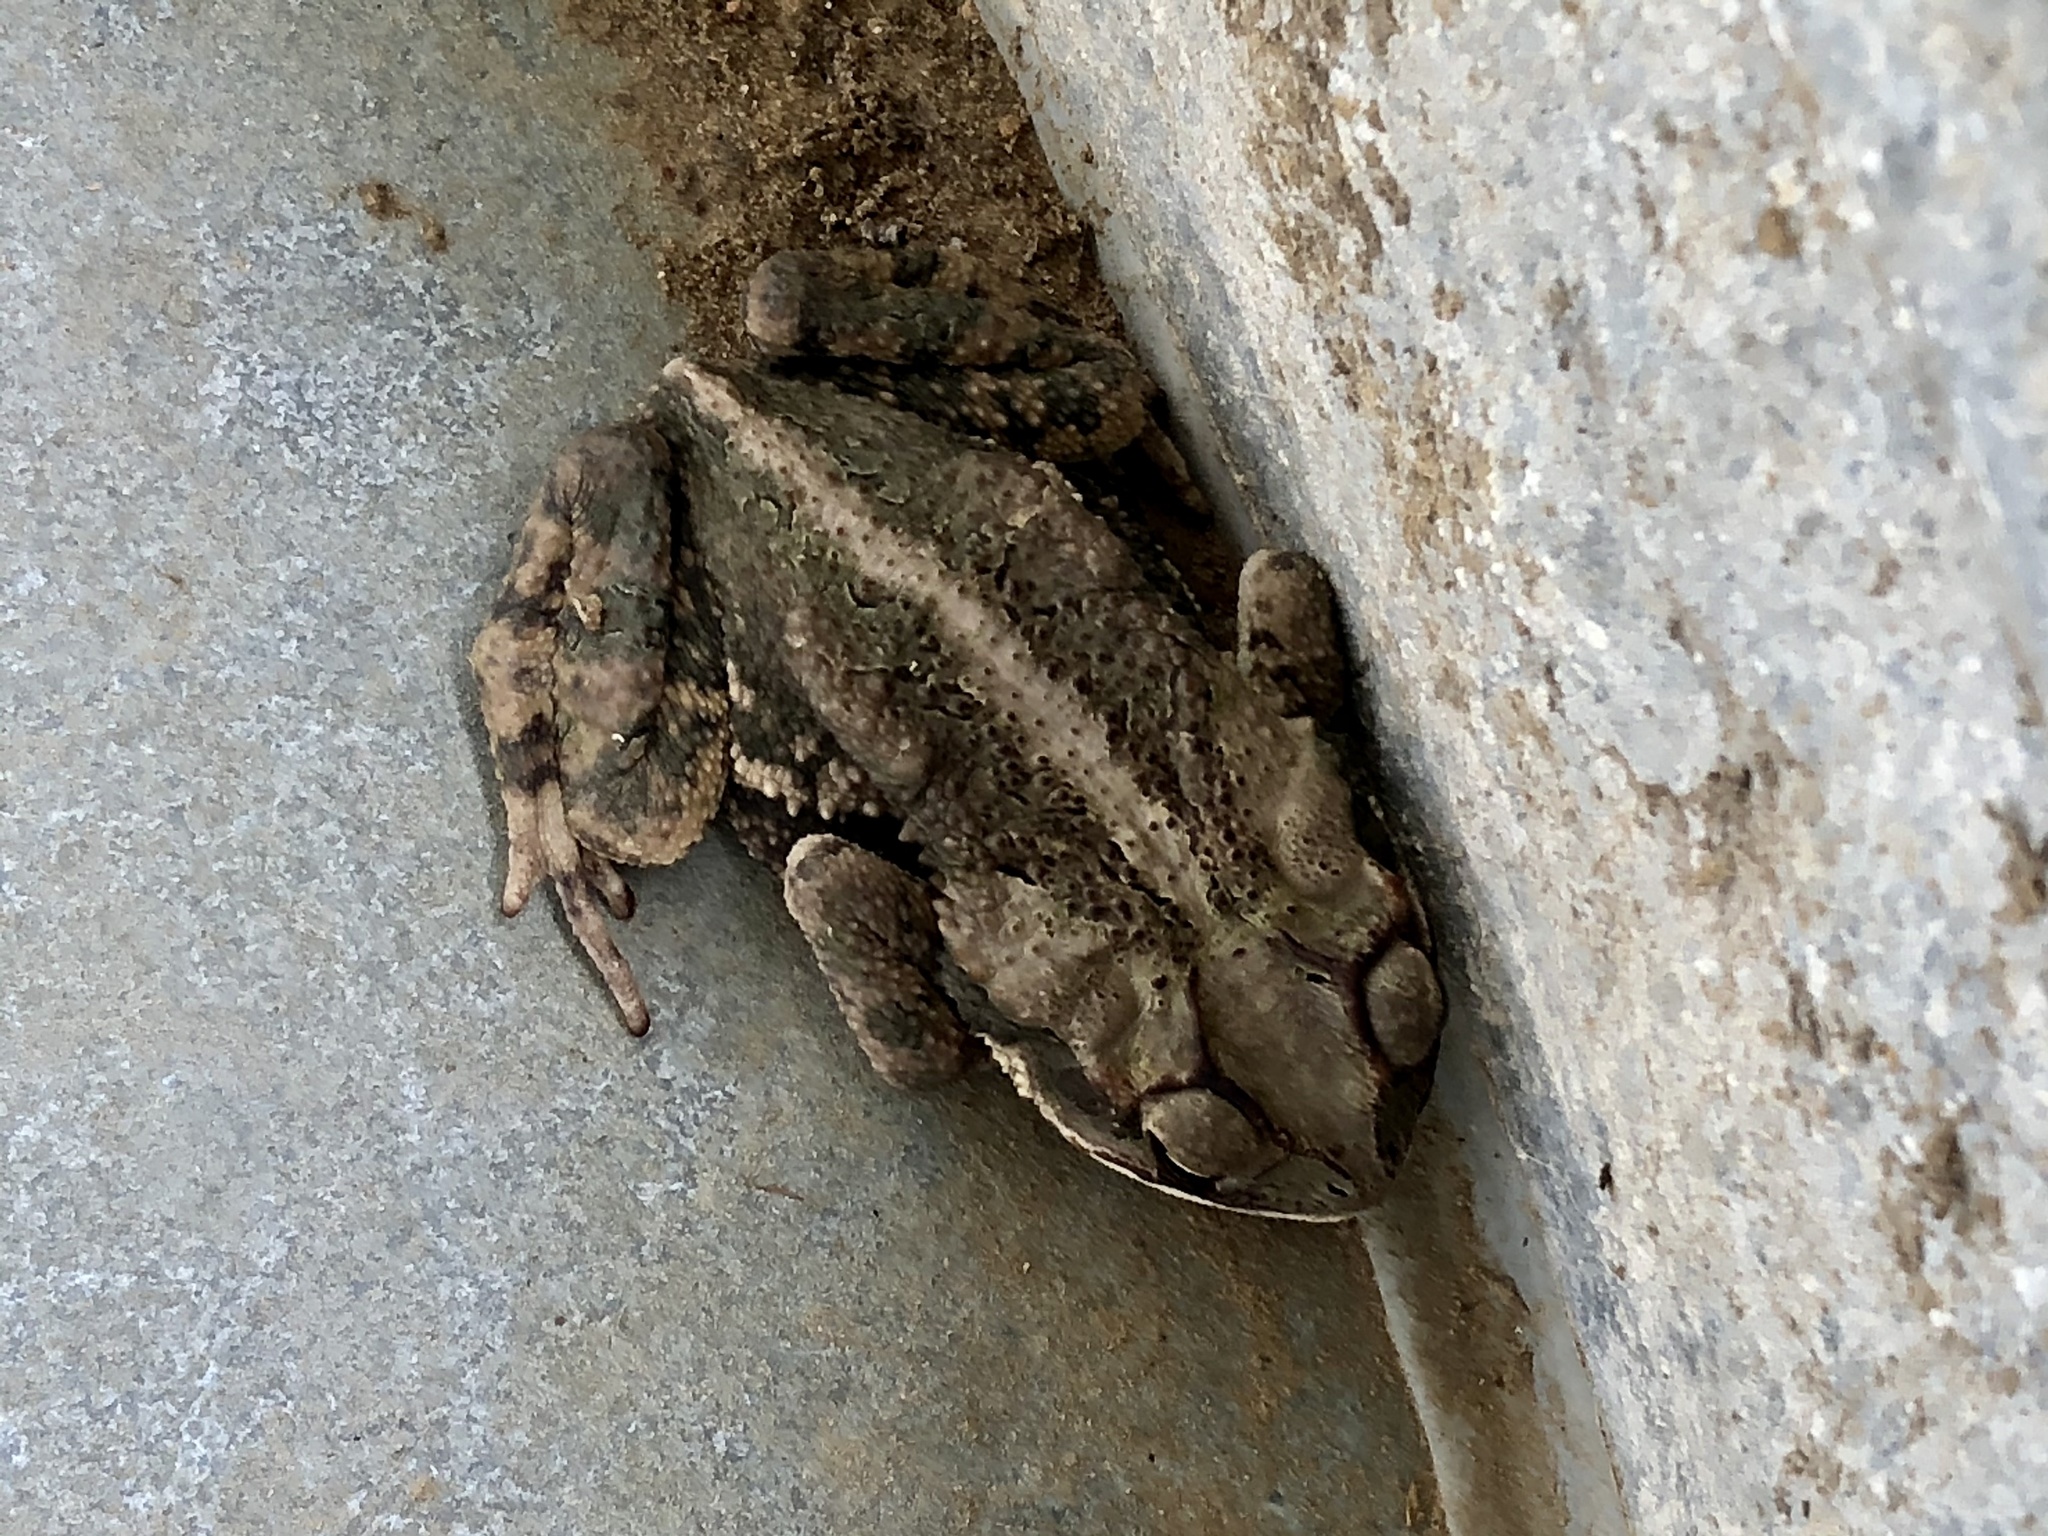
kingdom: Animalia
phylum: Chordata
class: Amphibia
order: Anura
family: Bufonidae
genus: Incilius
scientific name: Incilius nebulifer
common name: Gulf coast toad
